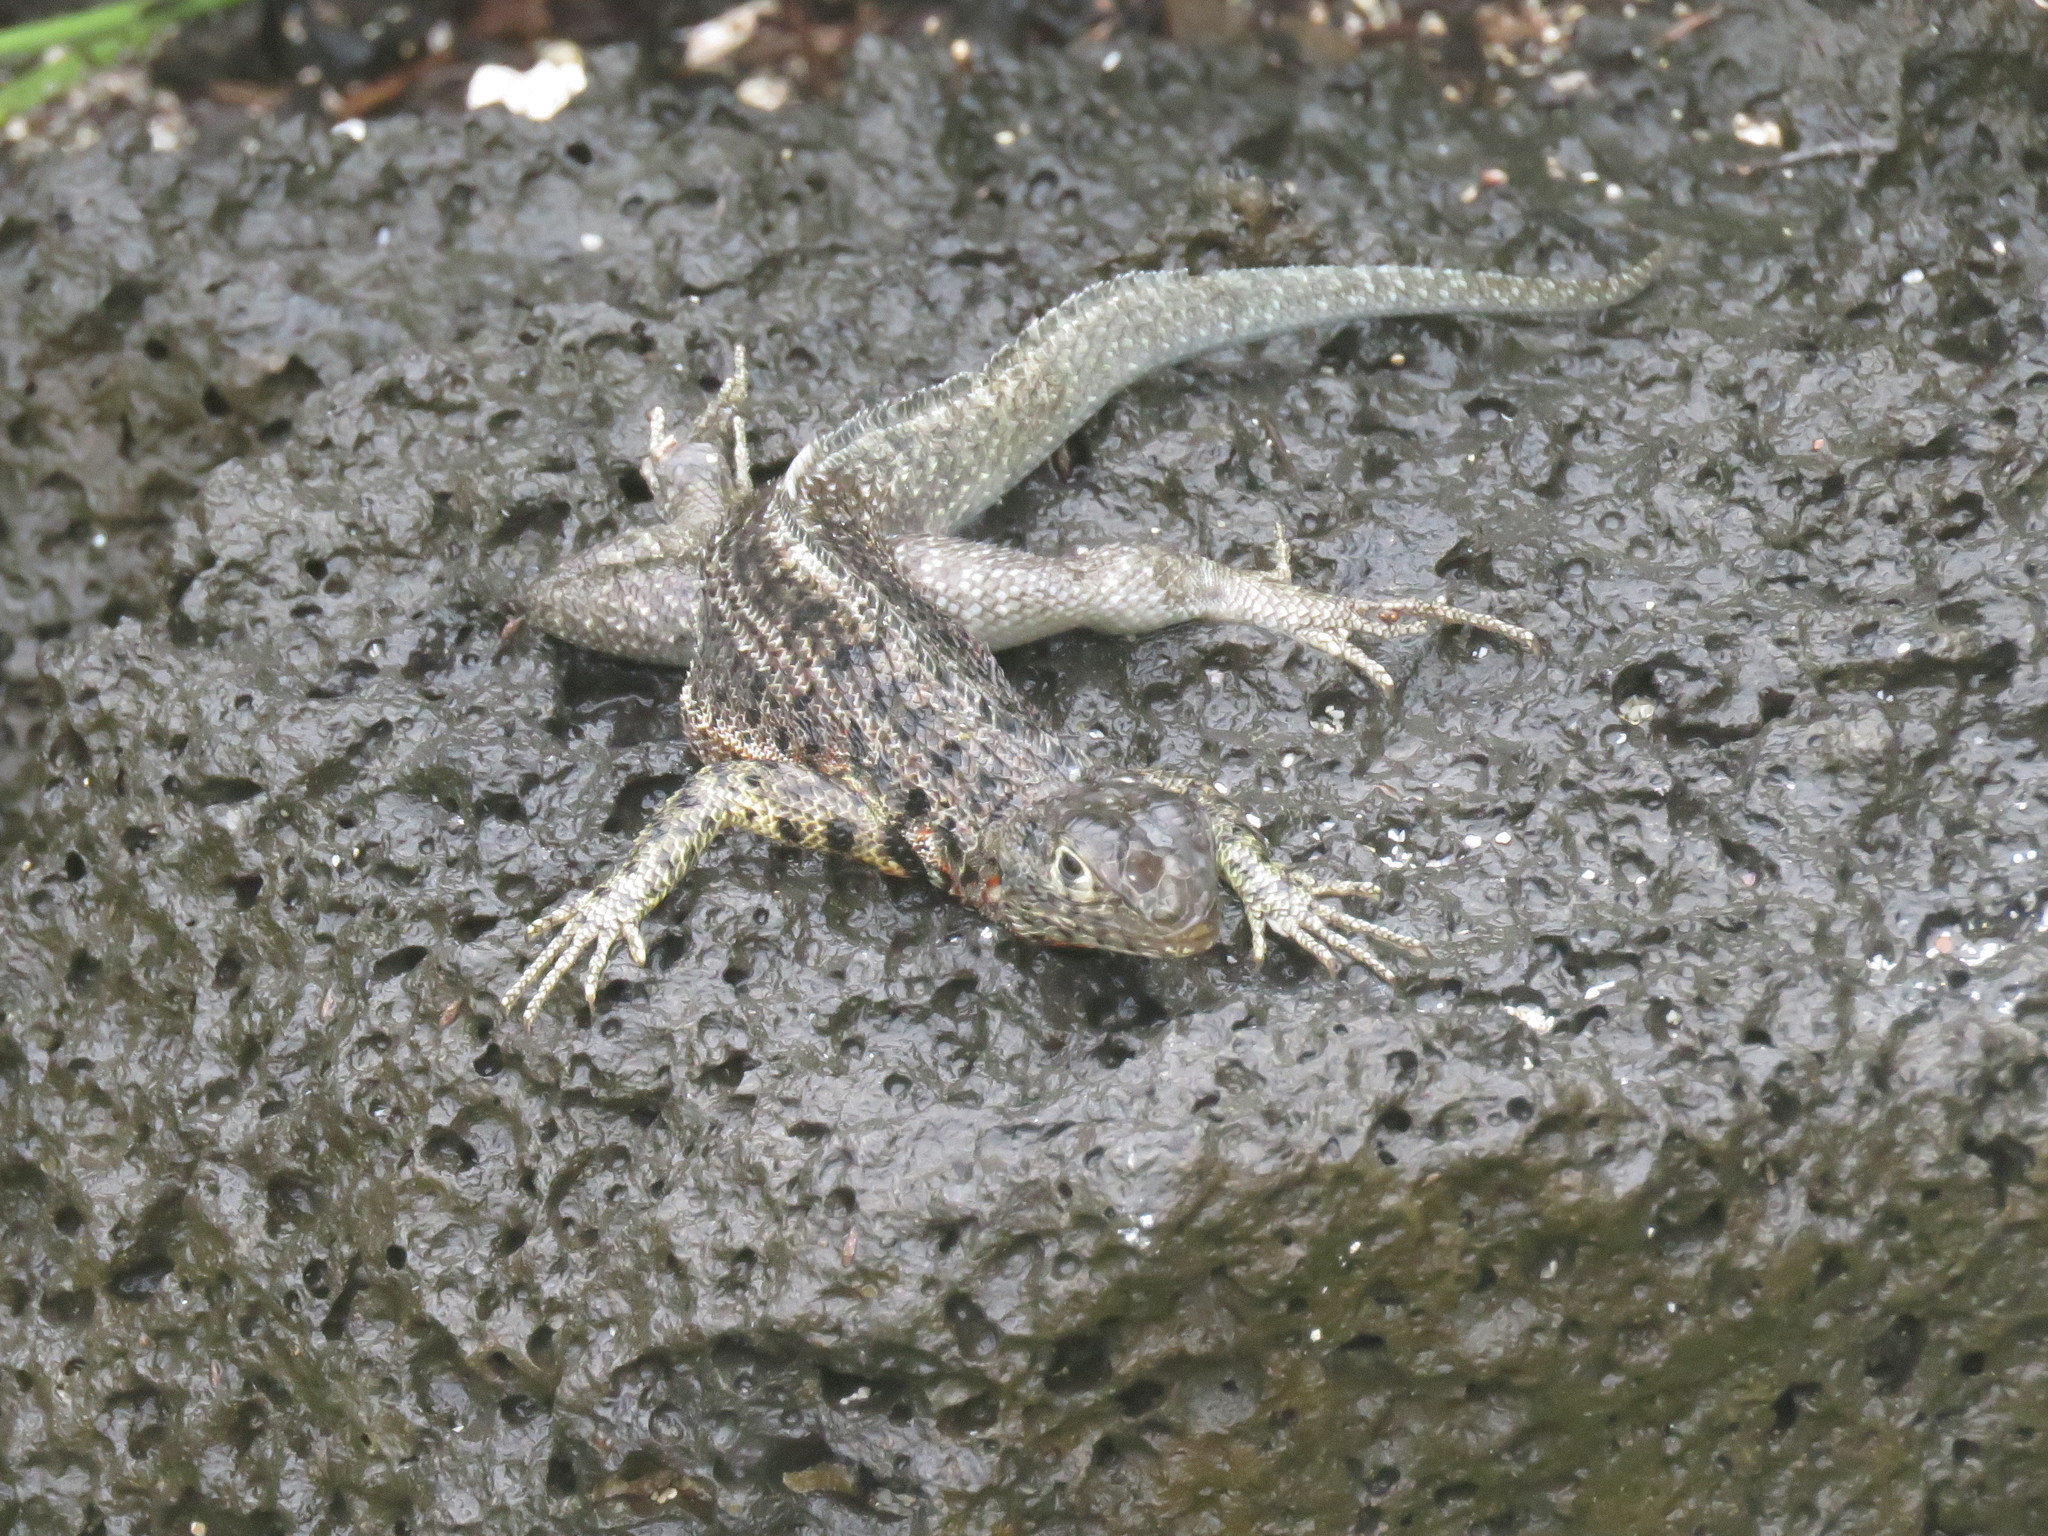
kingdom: Animalia
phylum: Chordata
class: Squamata
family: Tropiduridae
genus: Microlophus
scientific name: Microlophus indefatigabilis
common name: Galapagos lava lizard
